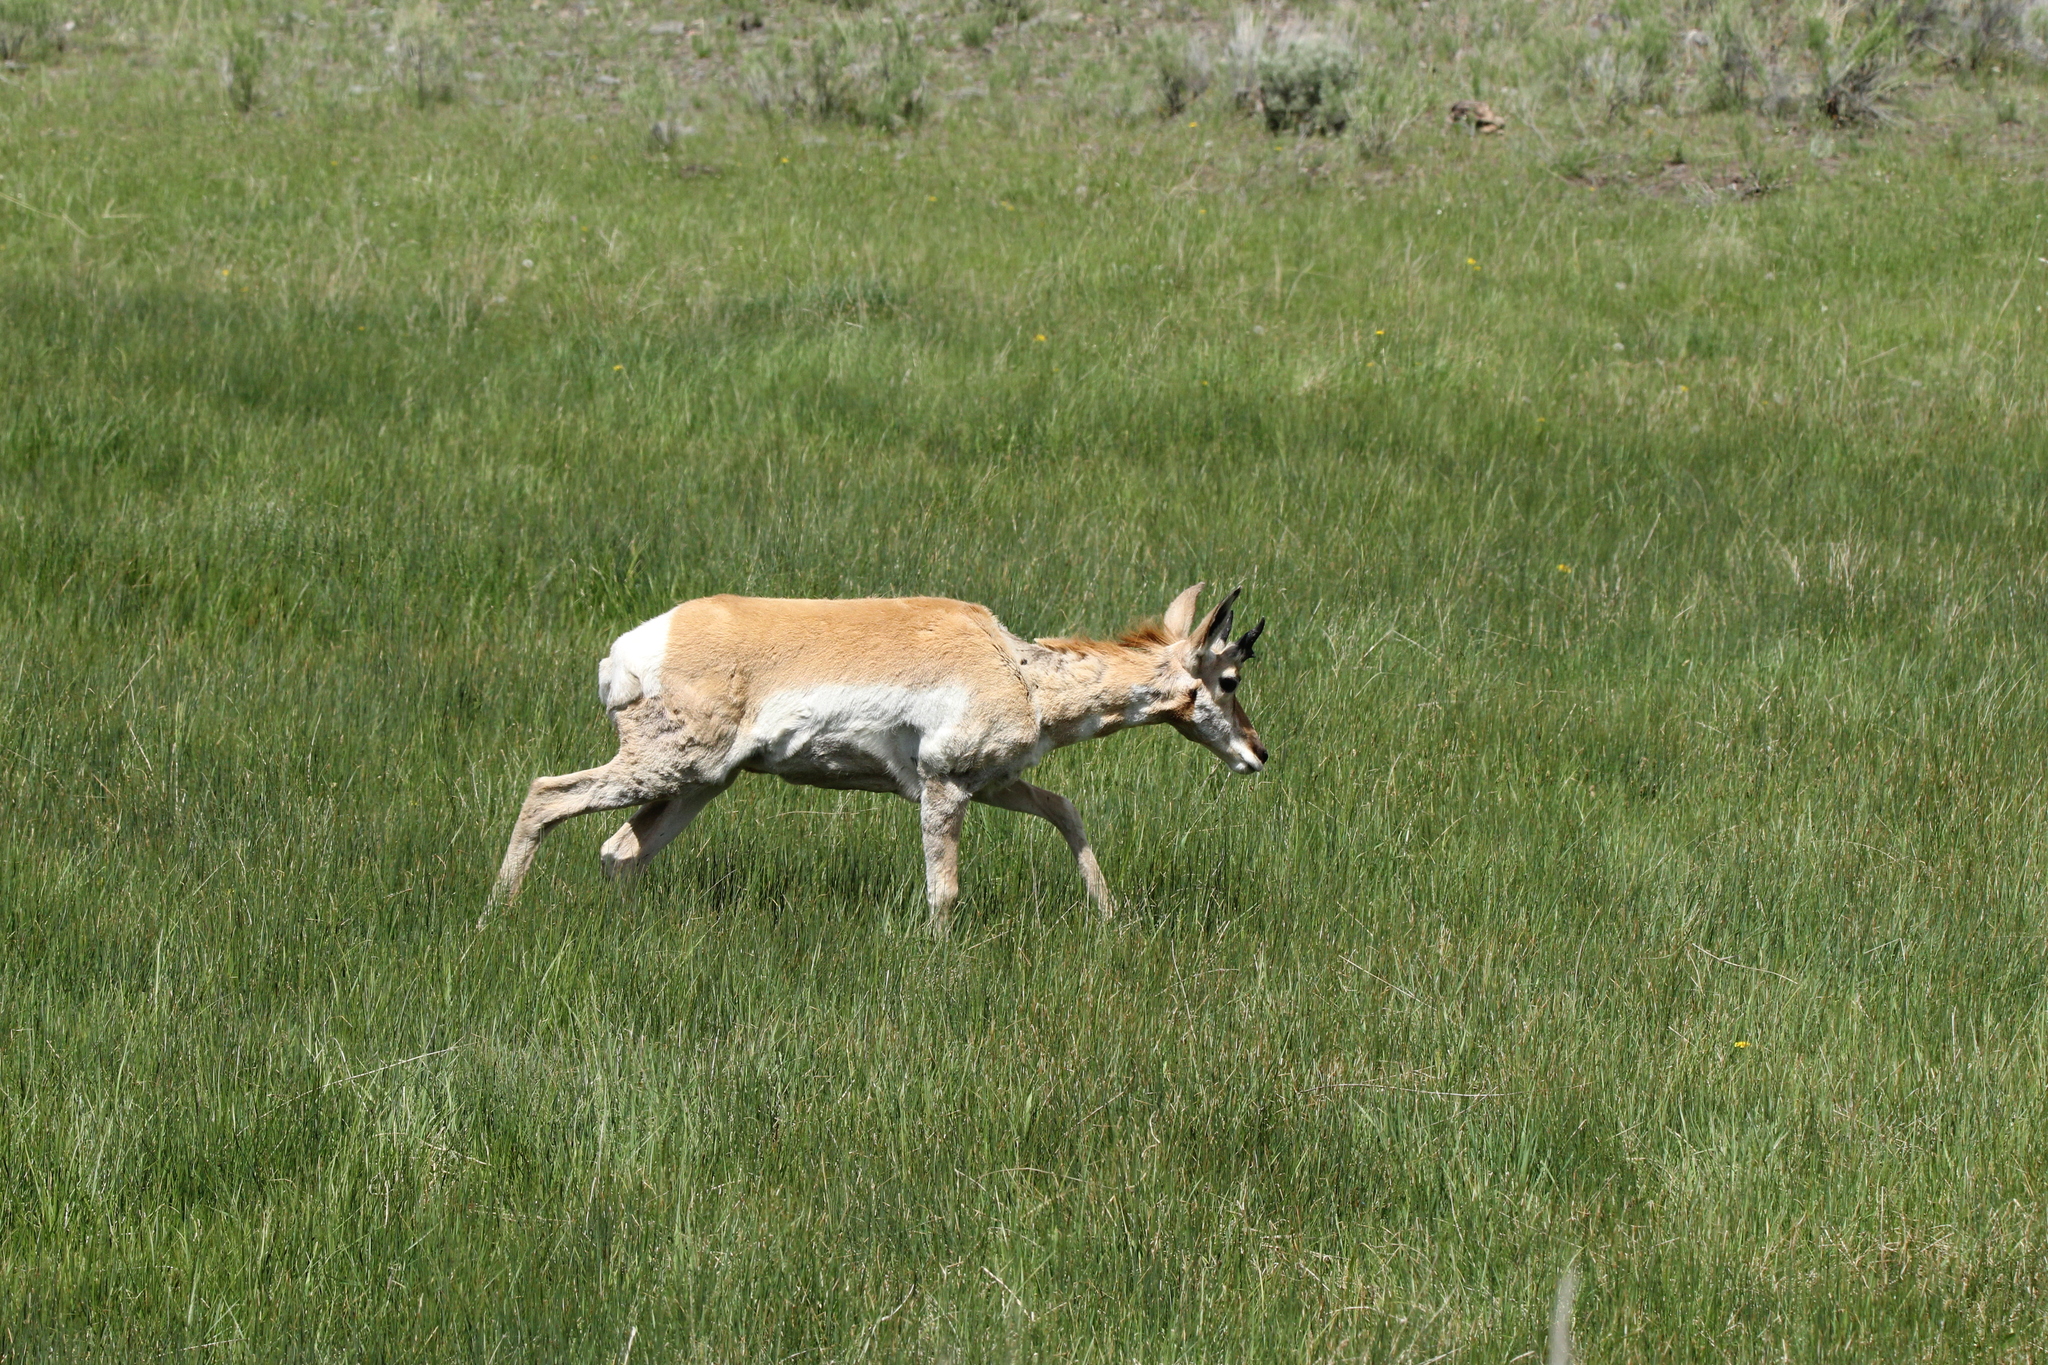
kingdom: Animalia
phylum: Chordata
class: Mammalia
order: Artiodactyla
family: Antilocapridae
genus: Antilocapra
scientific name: Antilocapra americana
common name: Pronghorn
